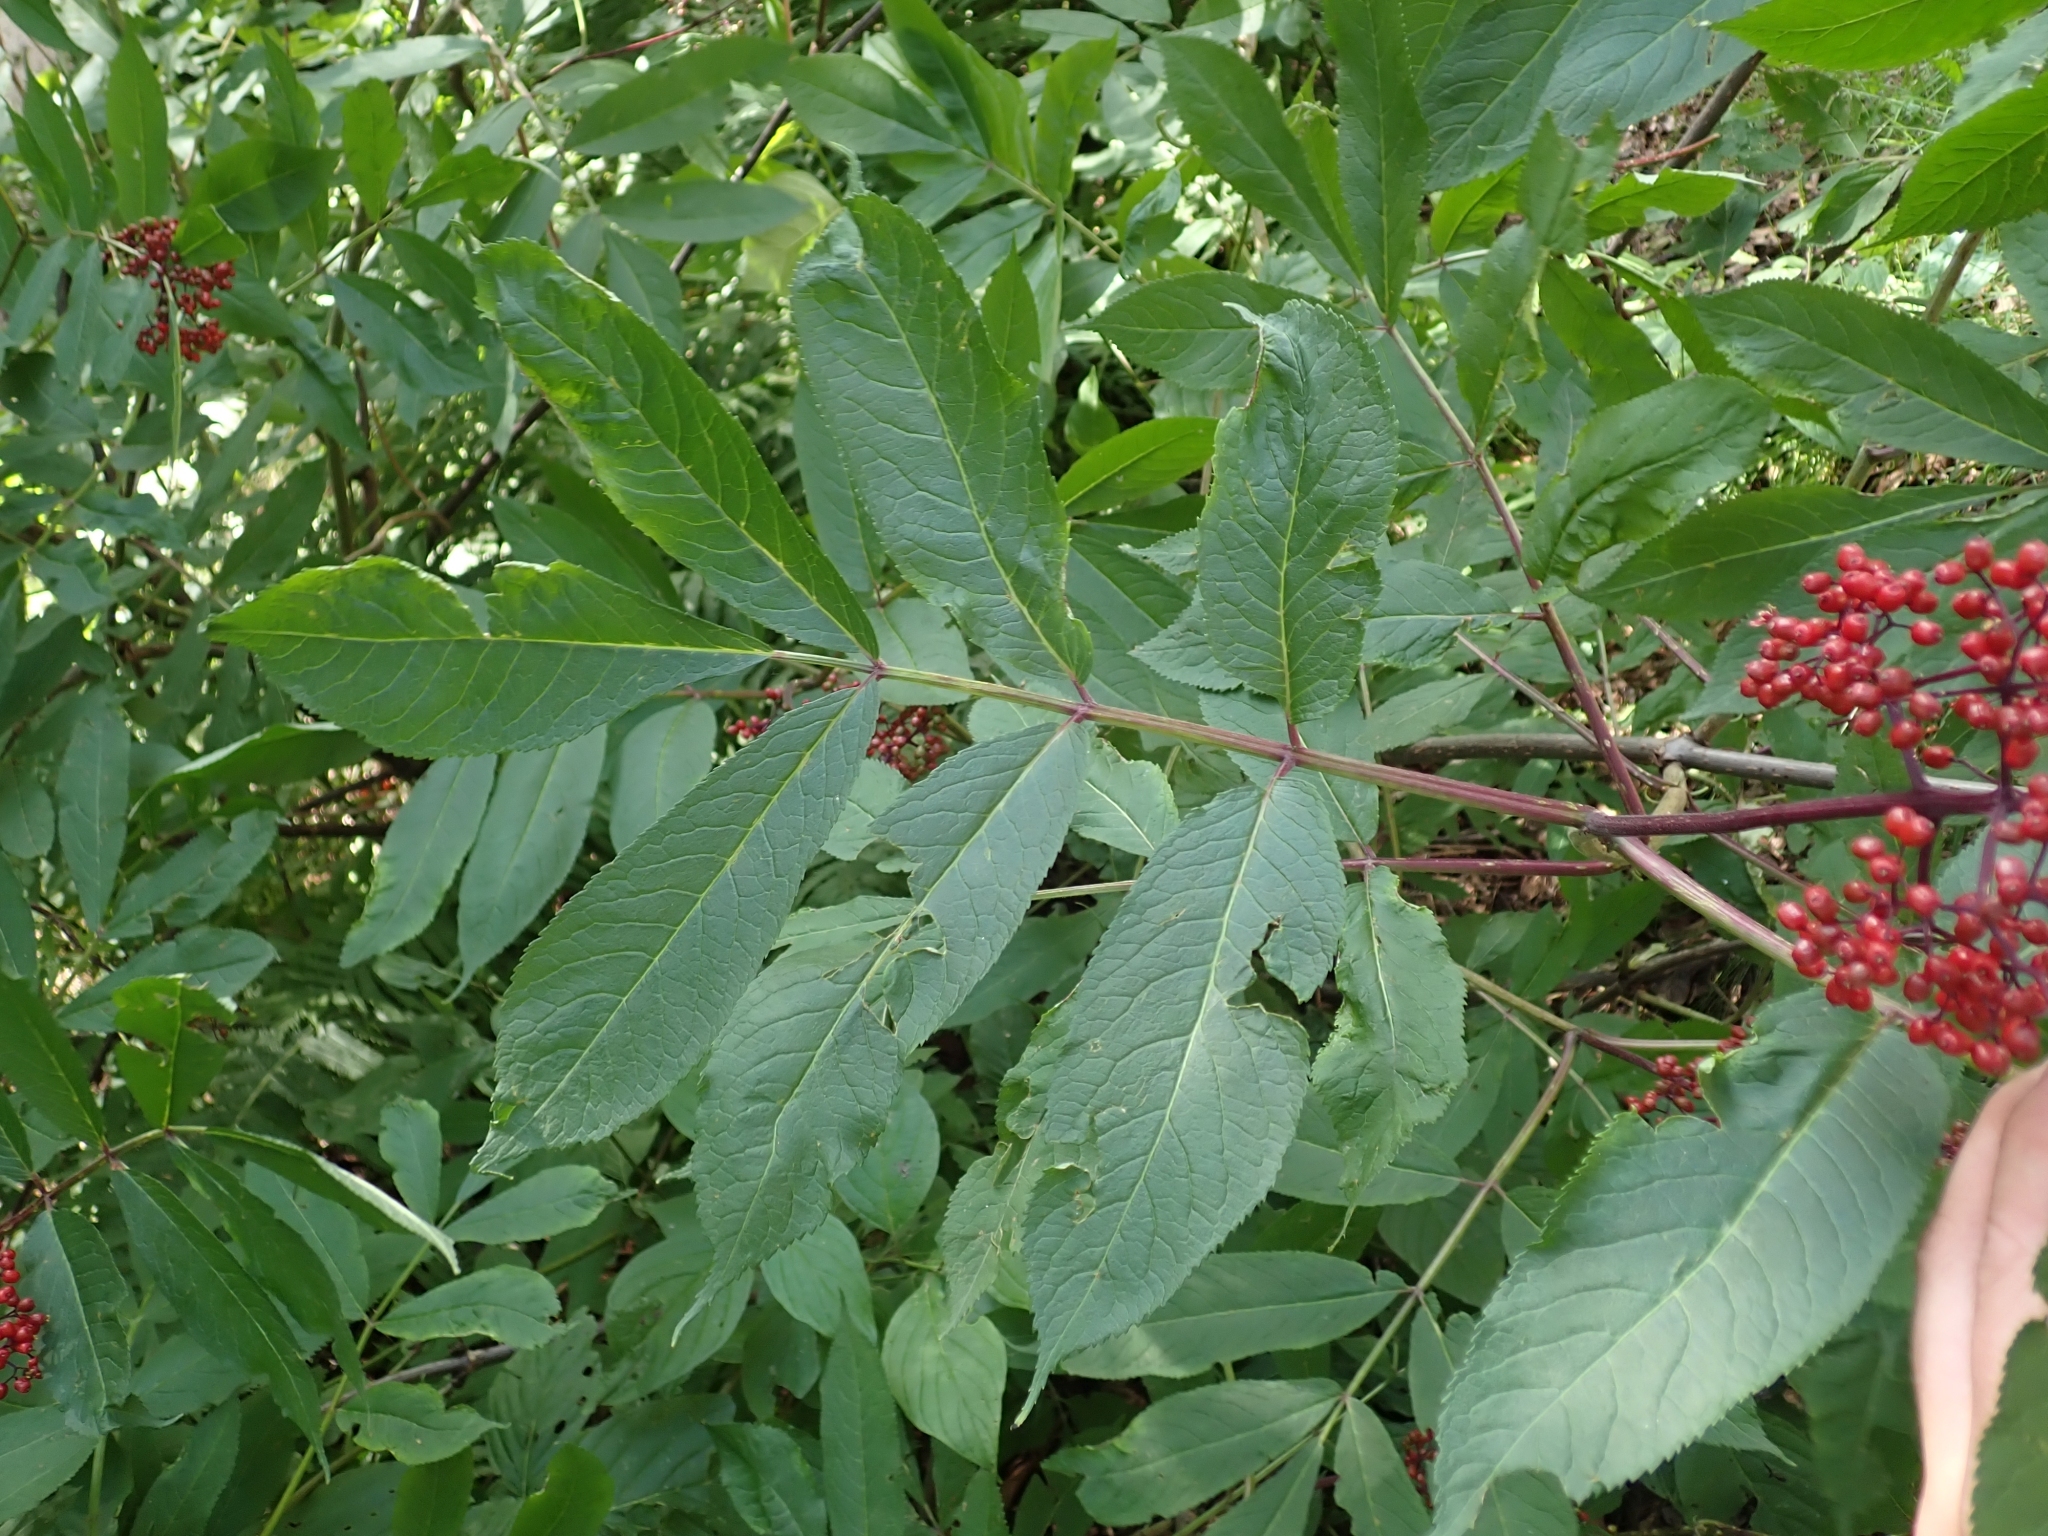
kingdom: Plantae
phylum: Tracheophyta
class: Magnoliopsida
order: Dipsacales
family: Viburnaceae
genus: Sambucus
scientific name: Sambucus racemosa
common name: Red-berried elder
